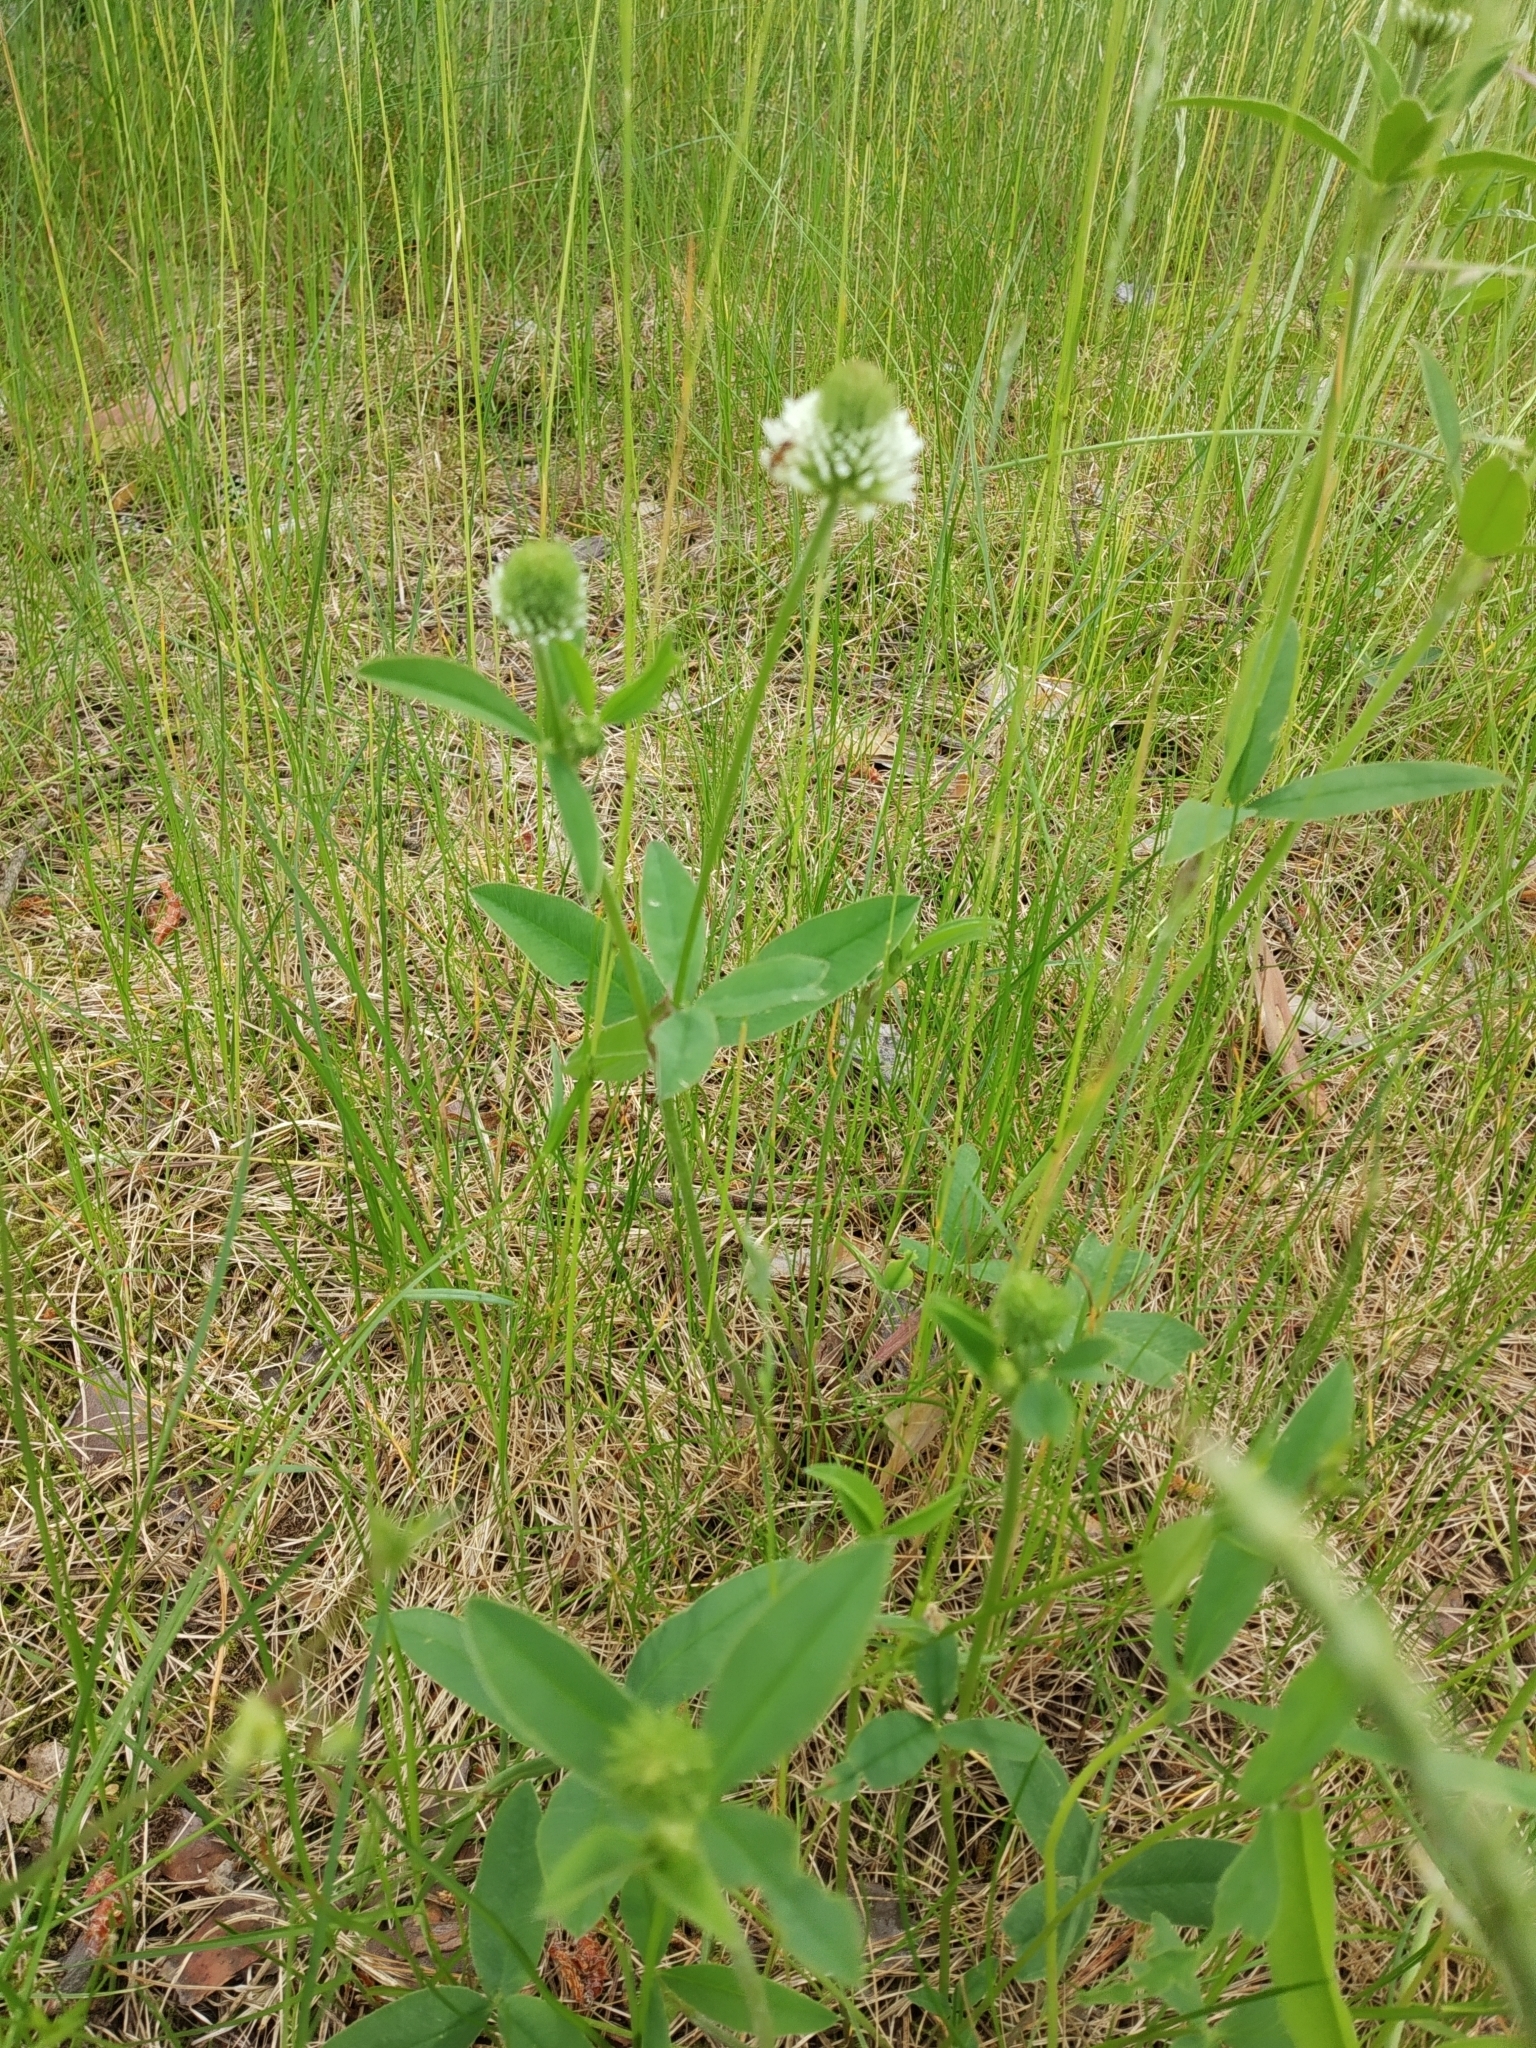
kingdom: Plantae
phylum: Tracheophyta
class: Magnoliopsida
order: Fabales
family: Fabaceae
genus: Trifolium
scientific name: Trifolium montanum
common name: Mountain clover
